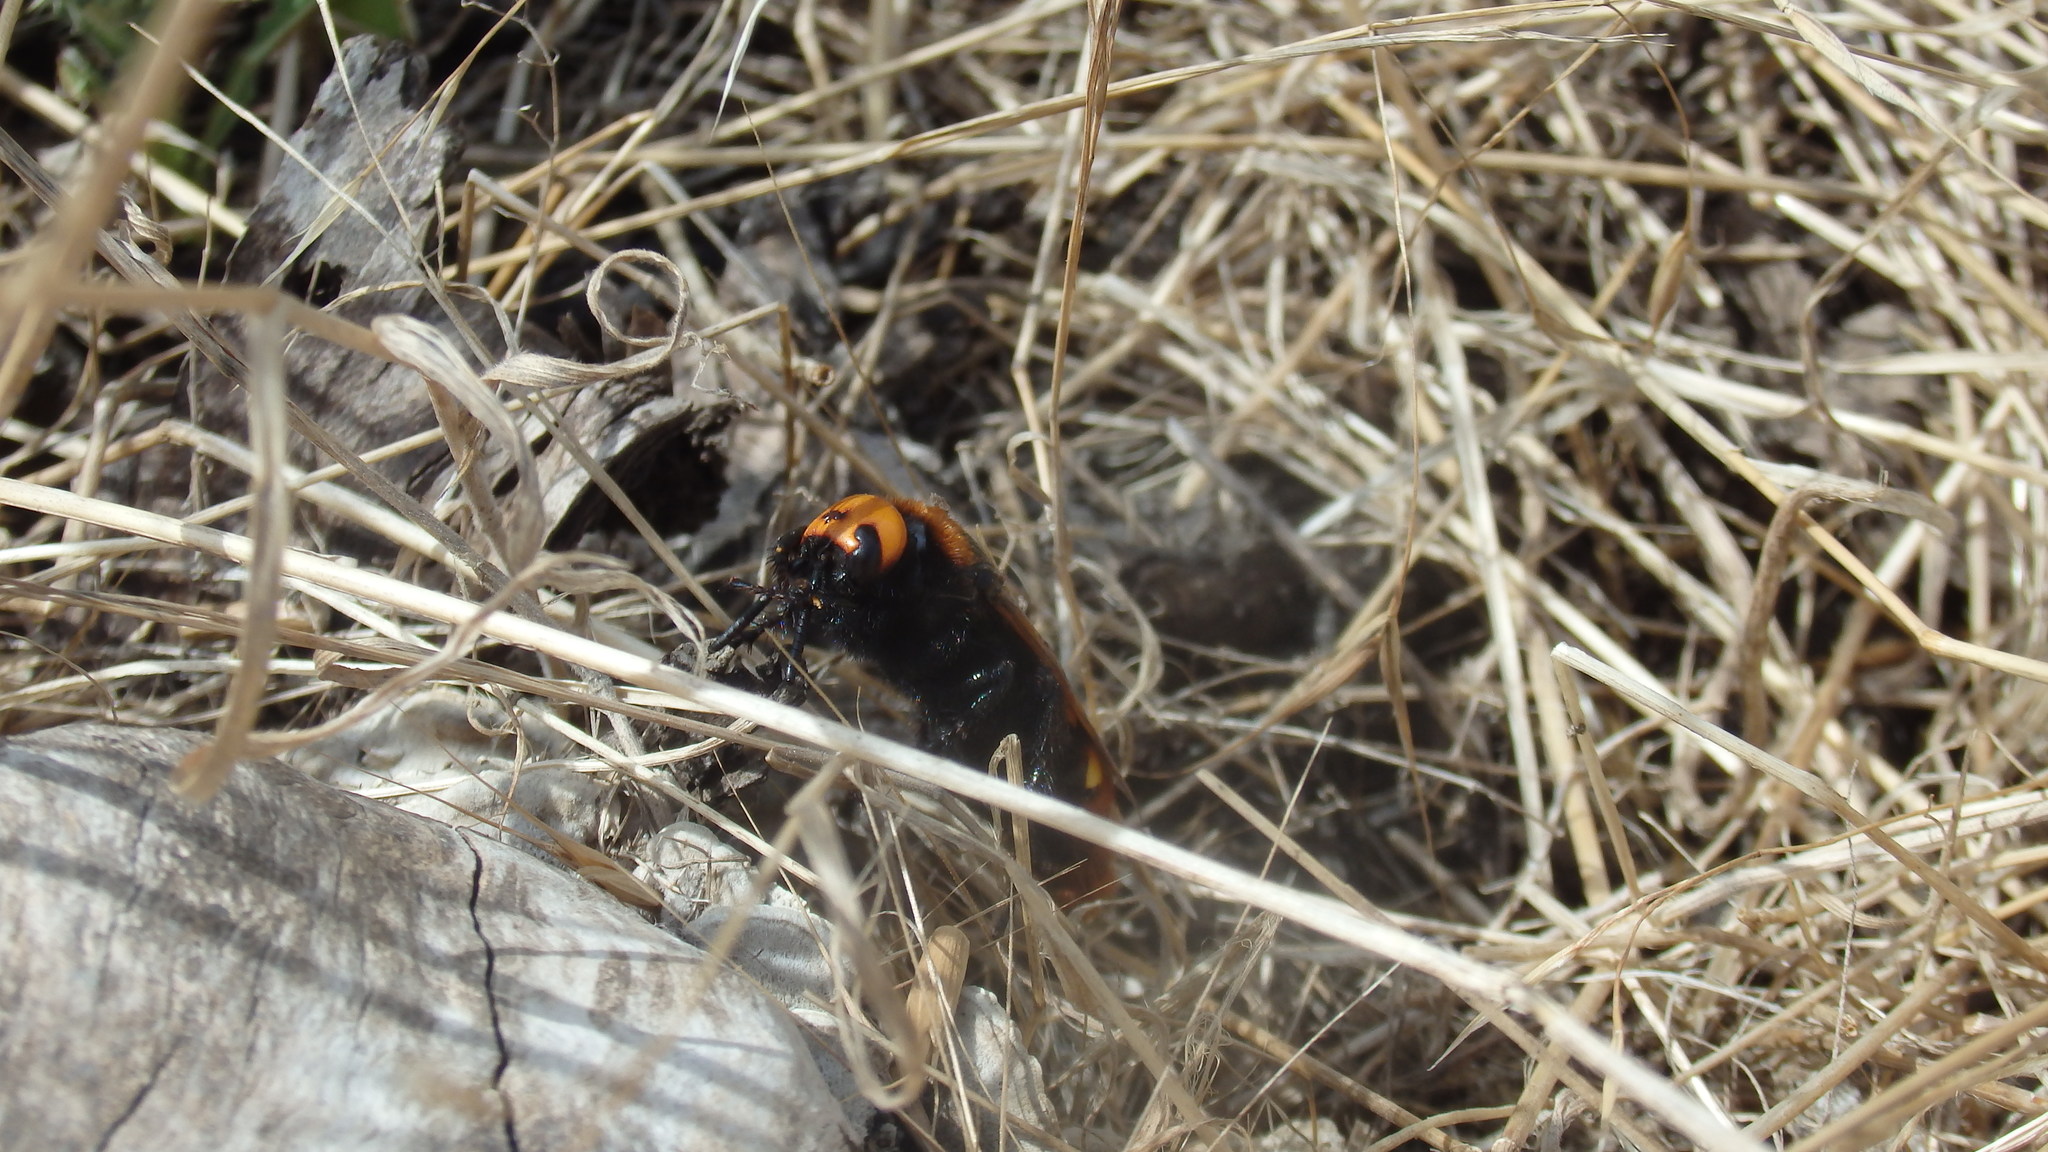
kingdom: Animalia
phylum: Arthropoda
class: Insecta
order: Hymenoptera
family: Scoliidae
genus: Megascolia
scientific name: Megascolia maculata
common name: Mammoth wasp
